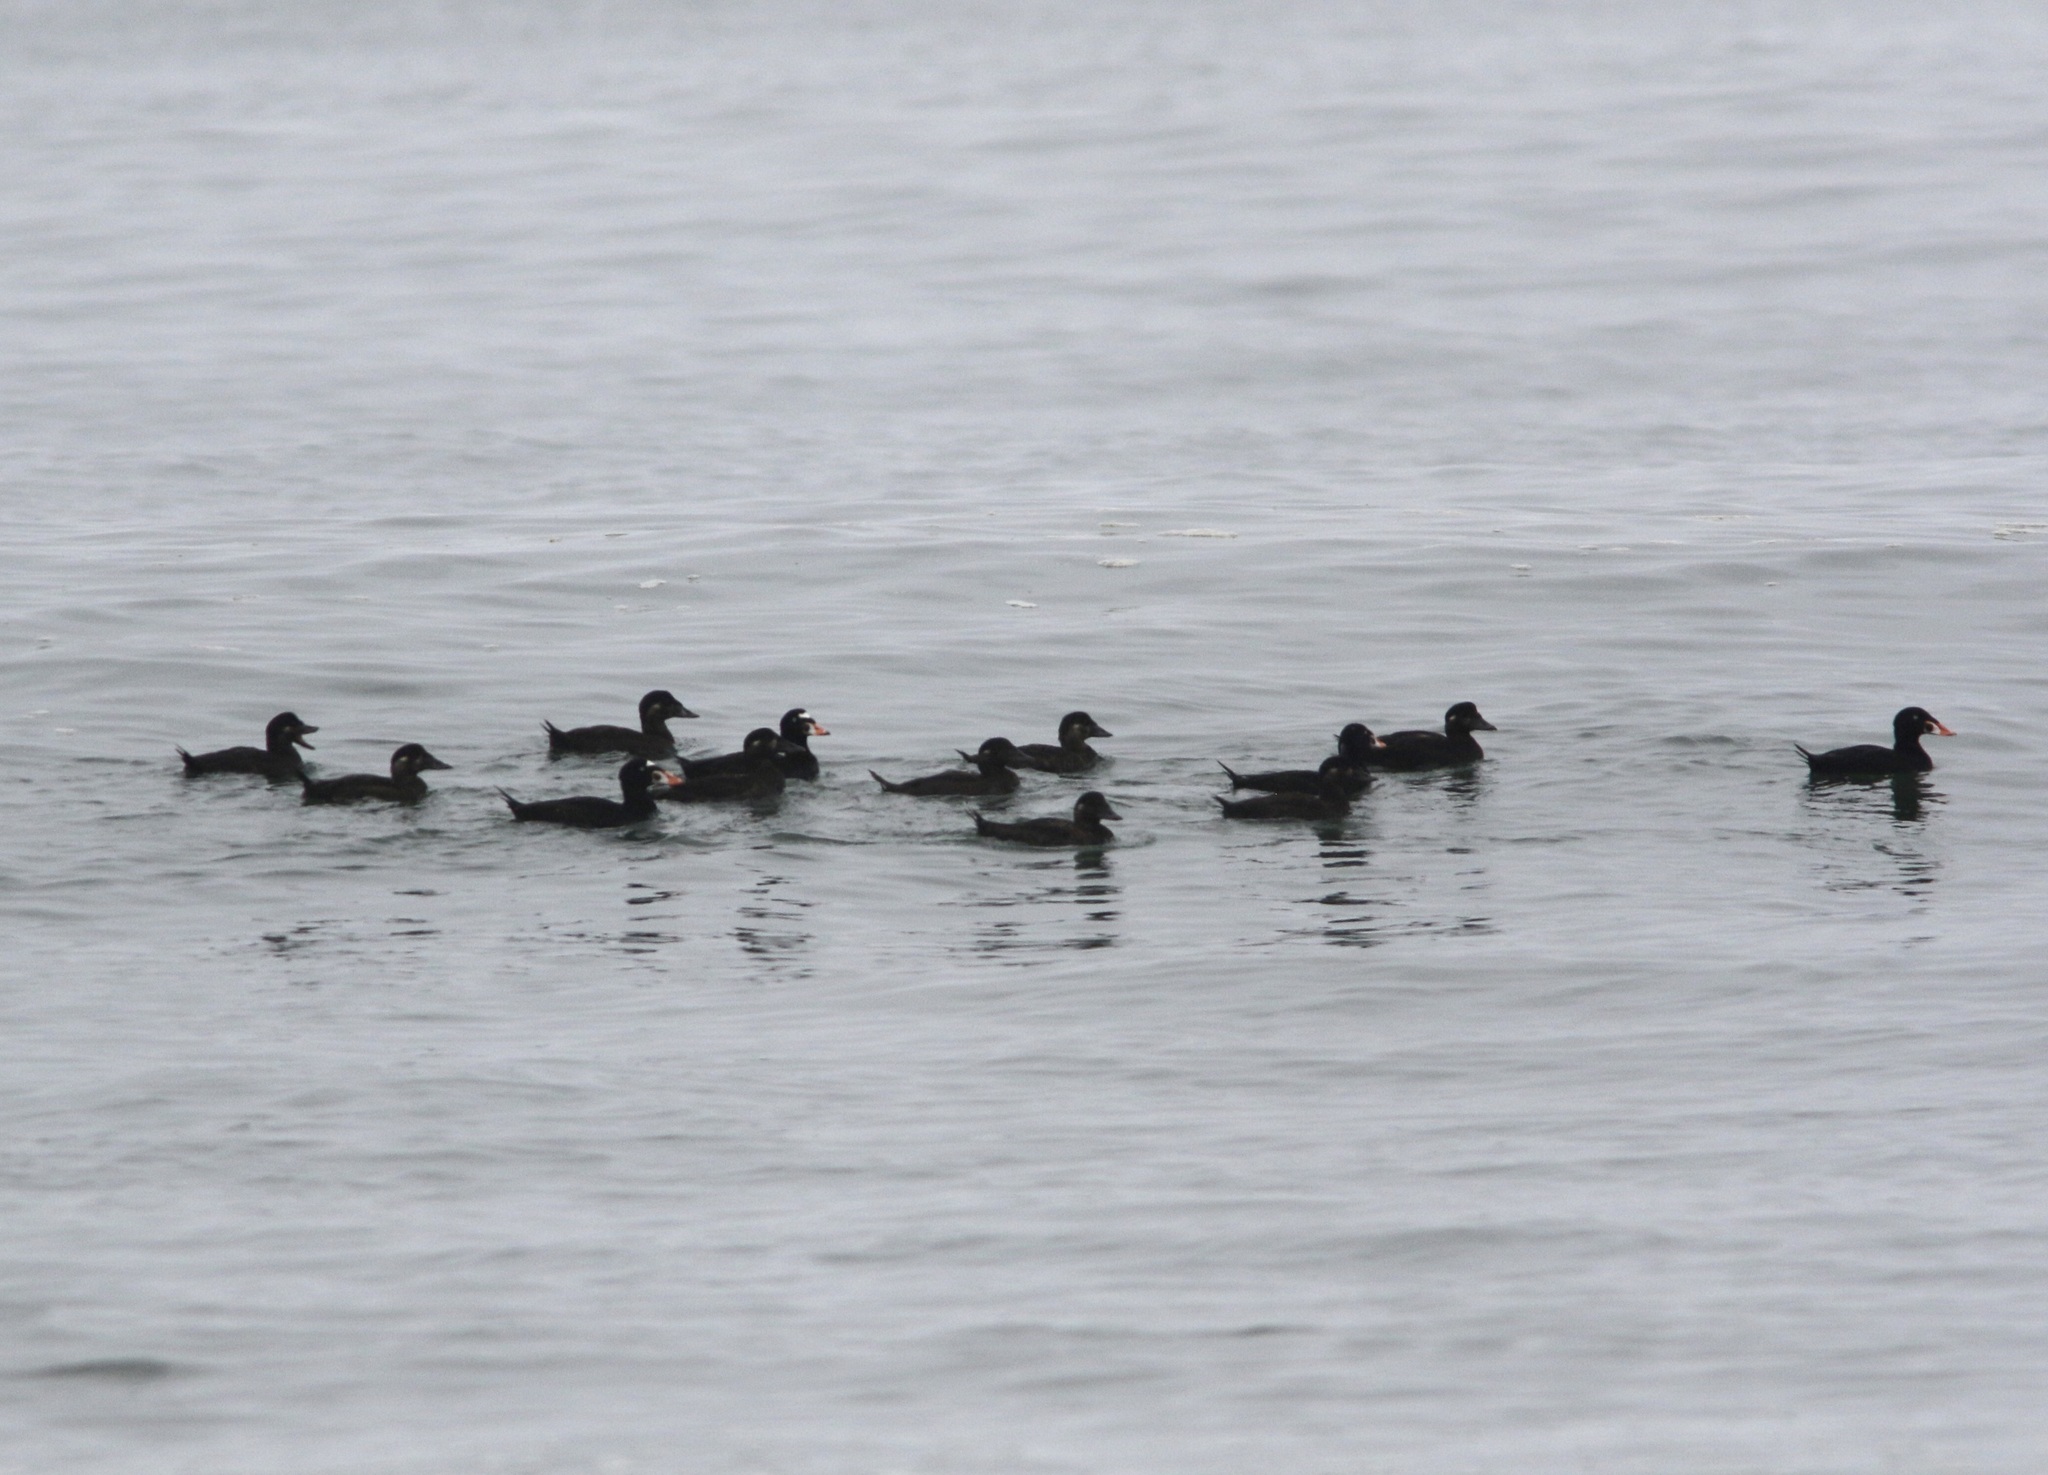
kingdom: Animalia
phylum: Chordata
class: Aves
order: Anseriformes
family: Anatidae
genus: Melanitta
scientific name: Melanitta perspicillata
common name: Surf scoter
